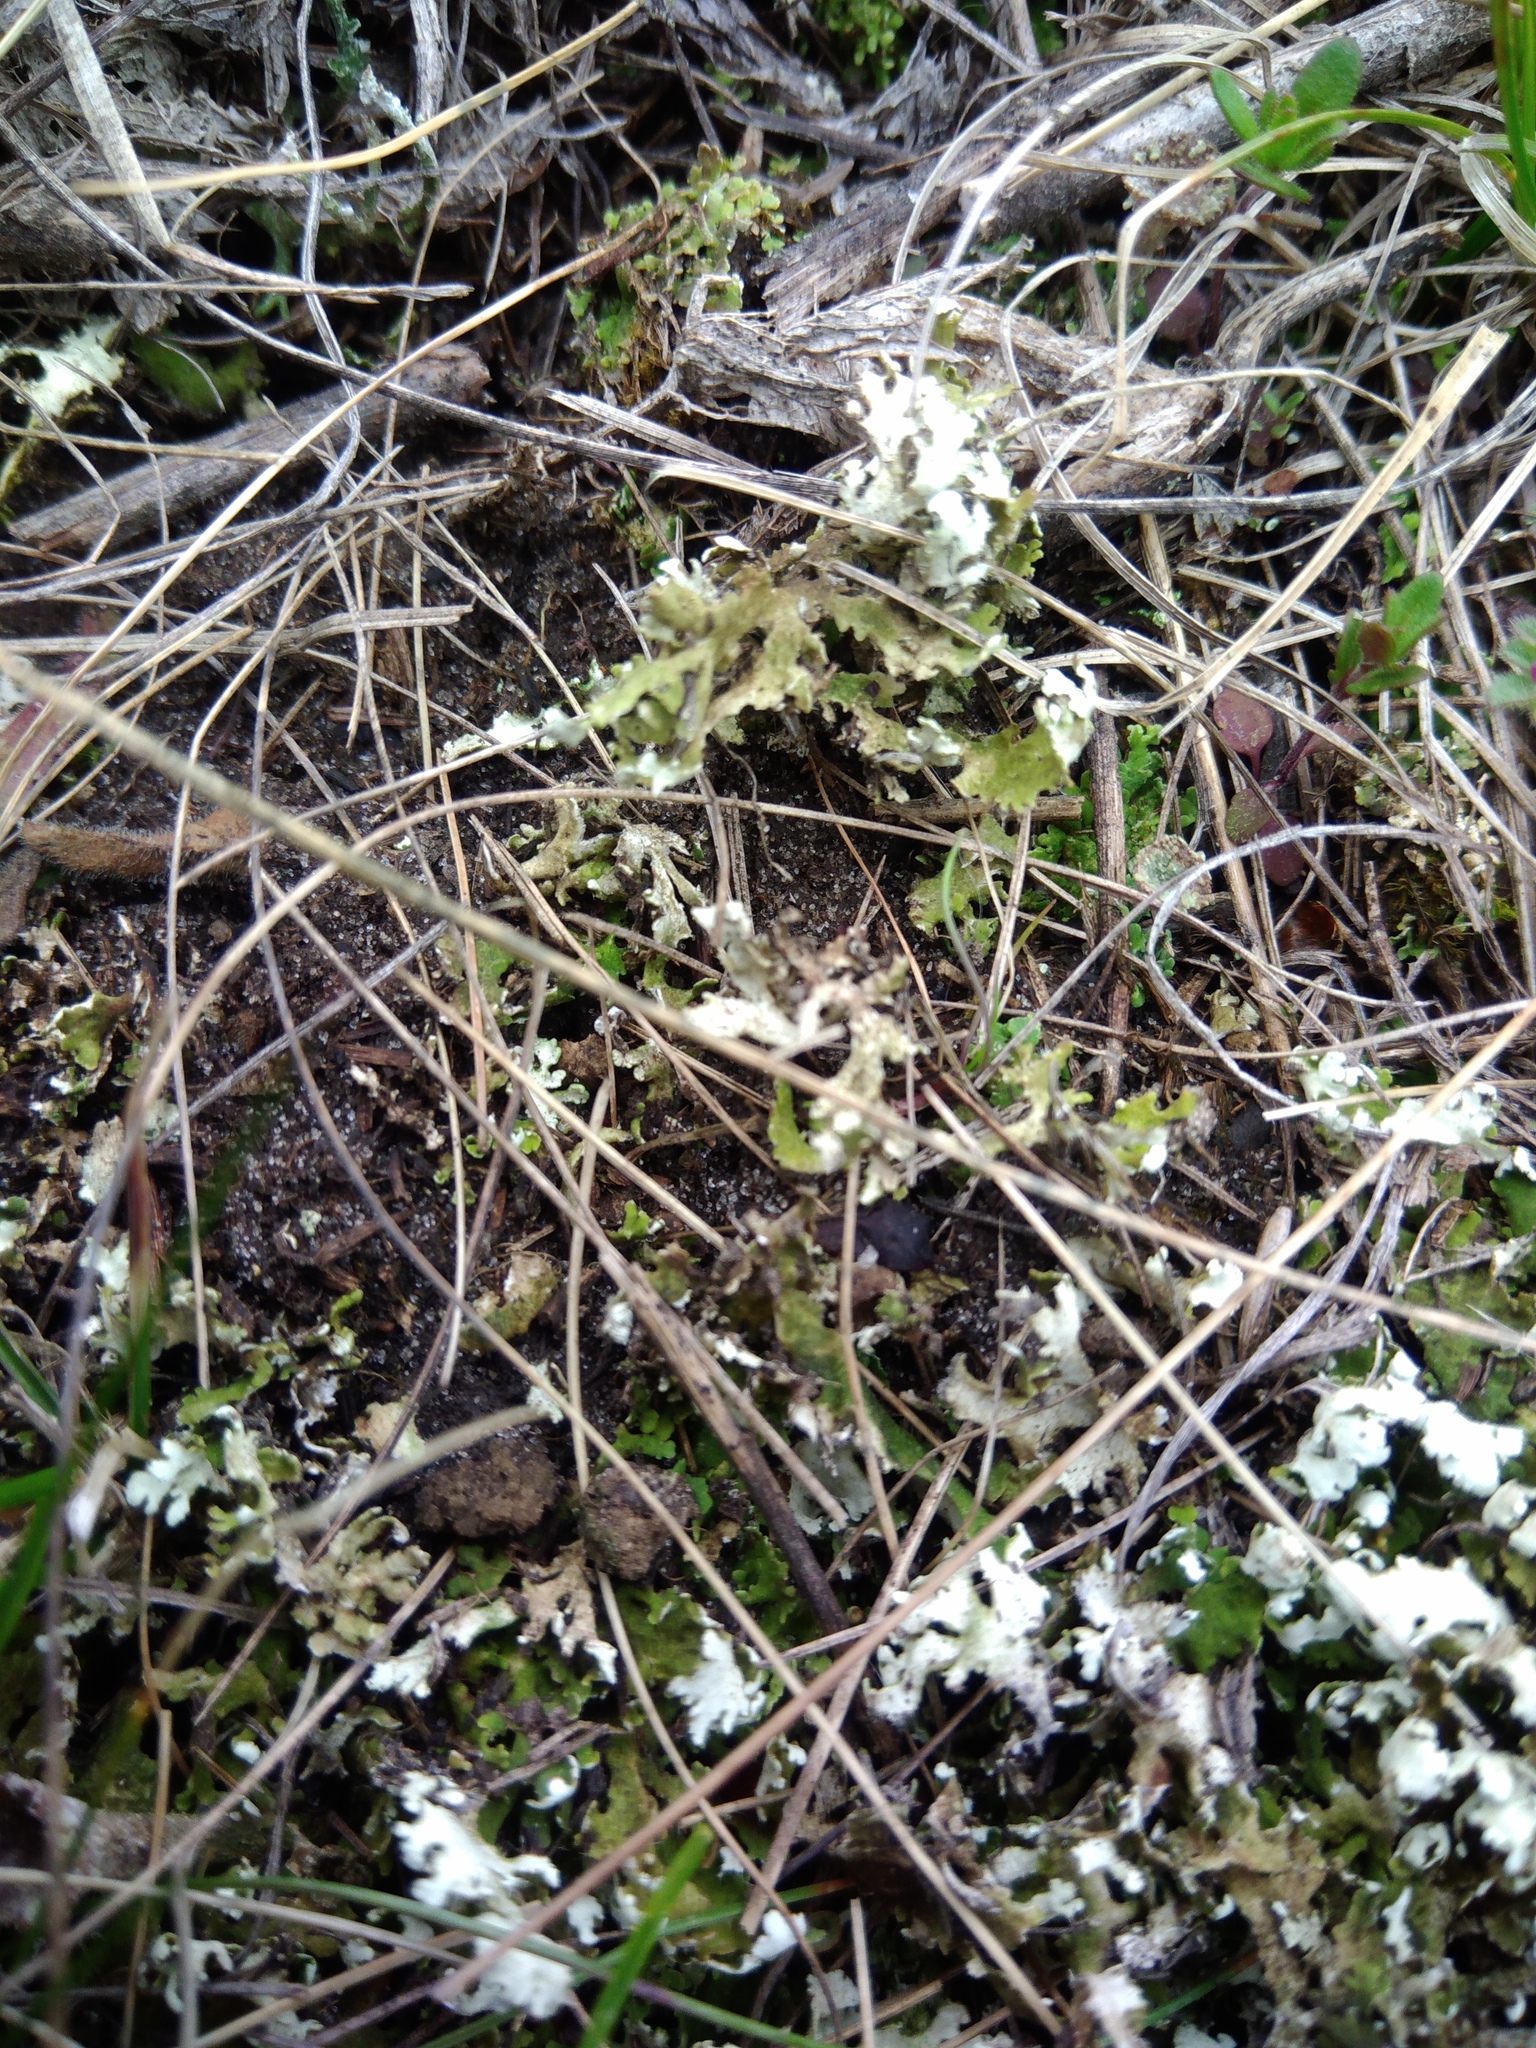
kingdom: Fungi
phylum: Ascomycota
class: Lecanoromycetes
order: Lecanorales
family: Cladoniaceae
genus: Cladonia
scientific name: Cladonia foliacea
